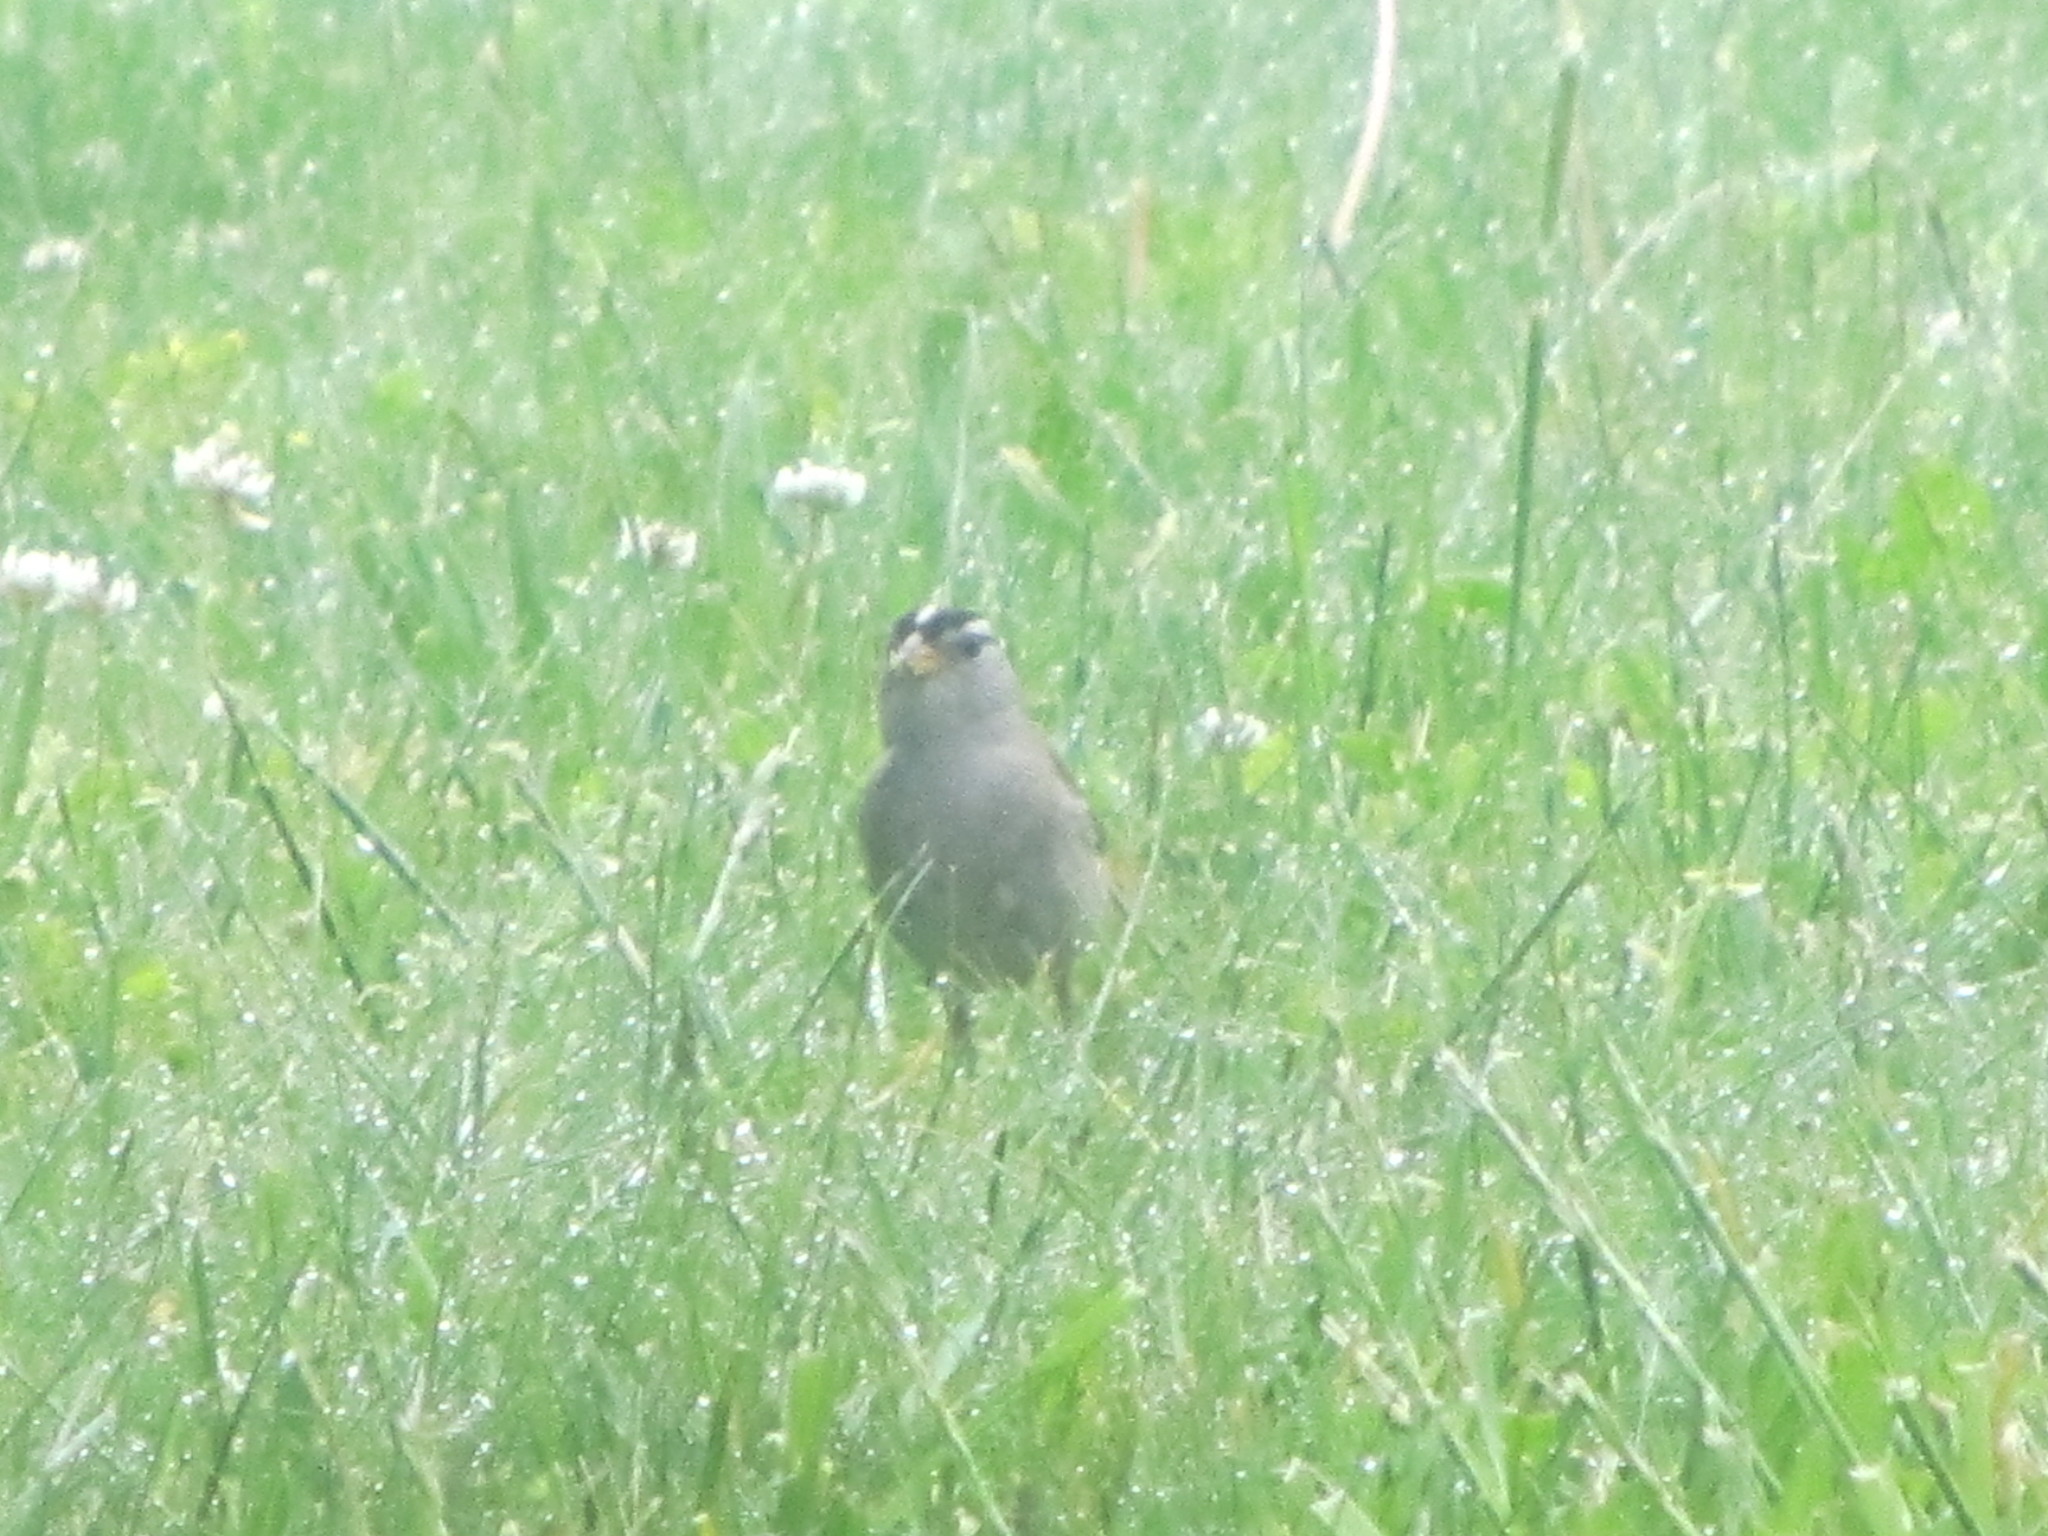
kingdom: Animalia
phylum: Chordata
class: Aves
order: Passeriformes
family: Passerellidae
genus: Zonotrichia
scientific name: Zonotrichia leucophrys
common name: White-crowned sparrow
